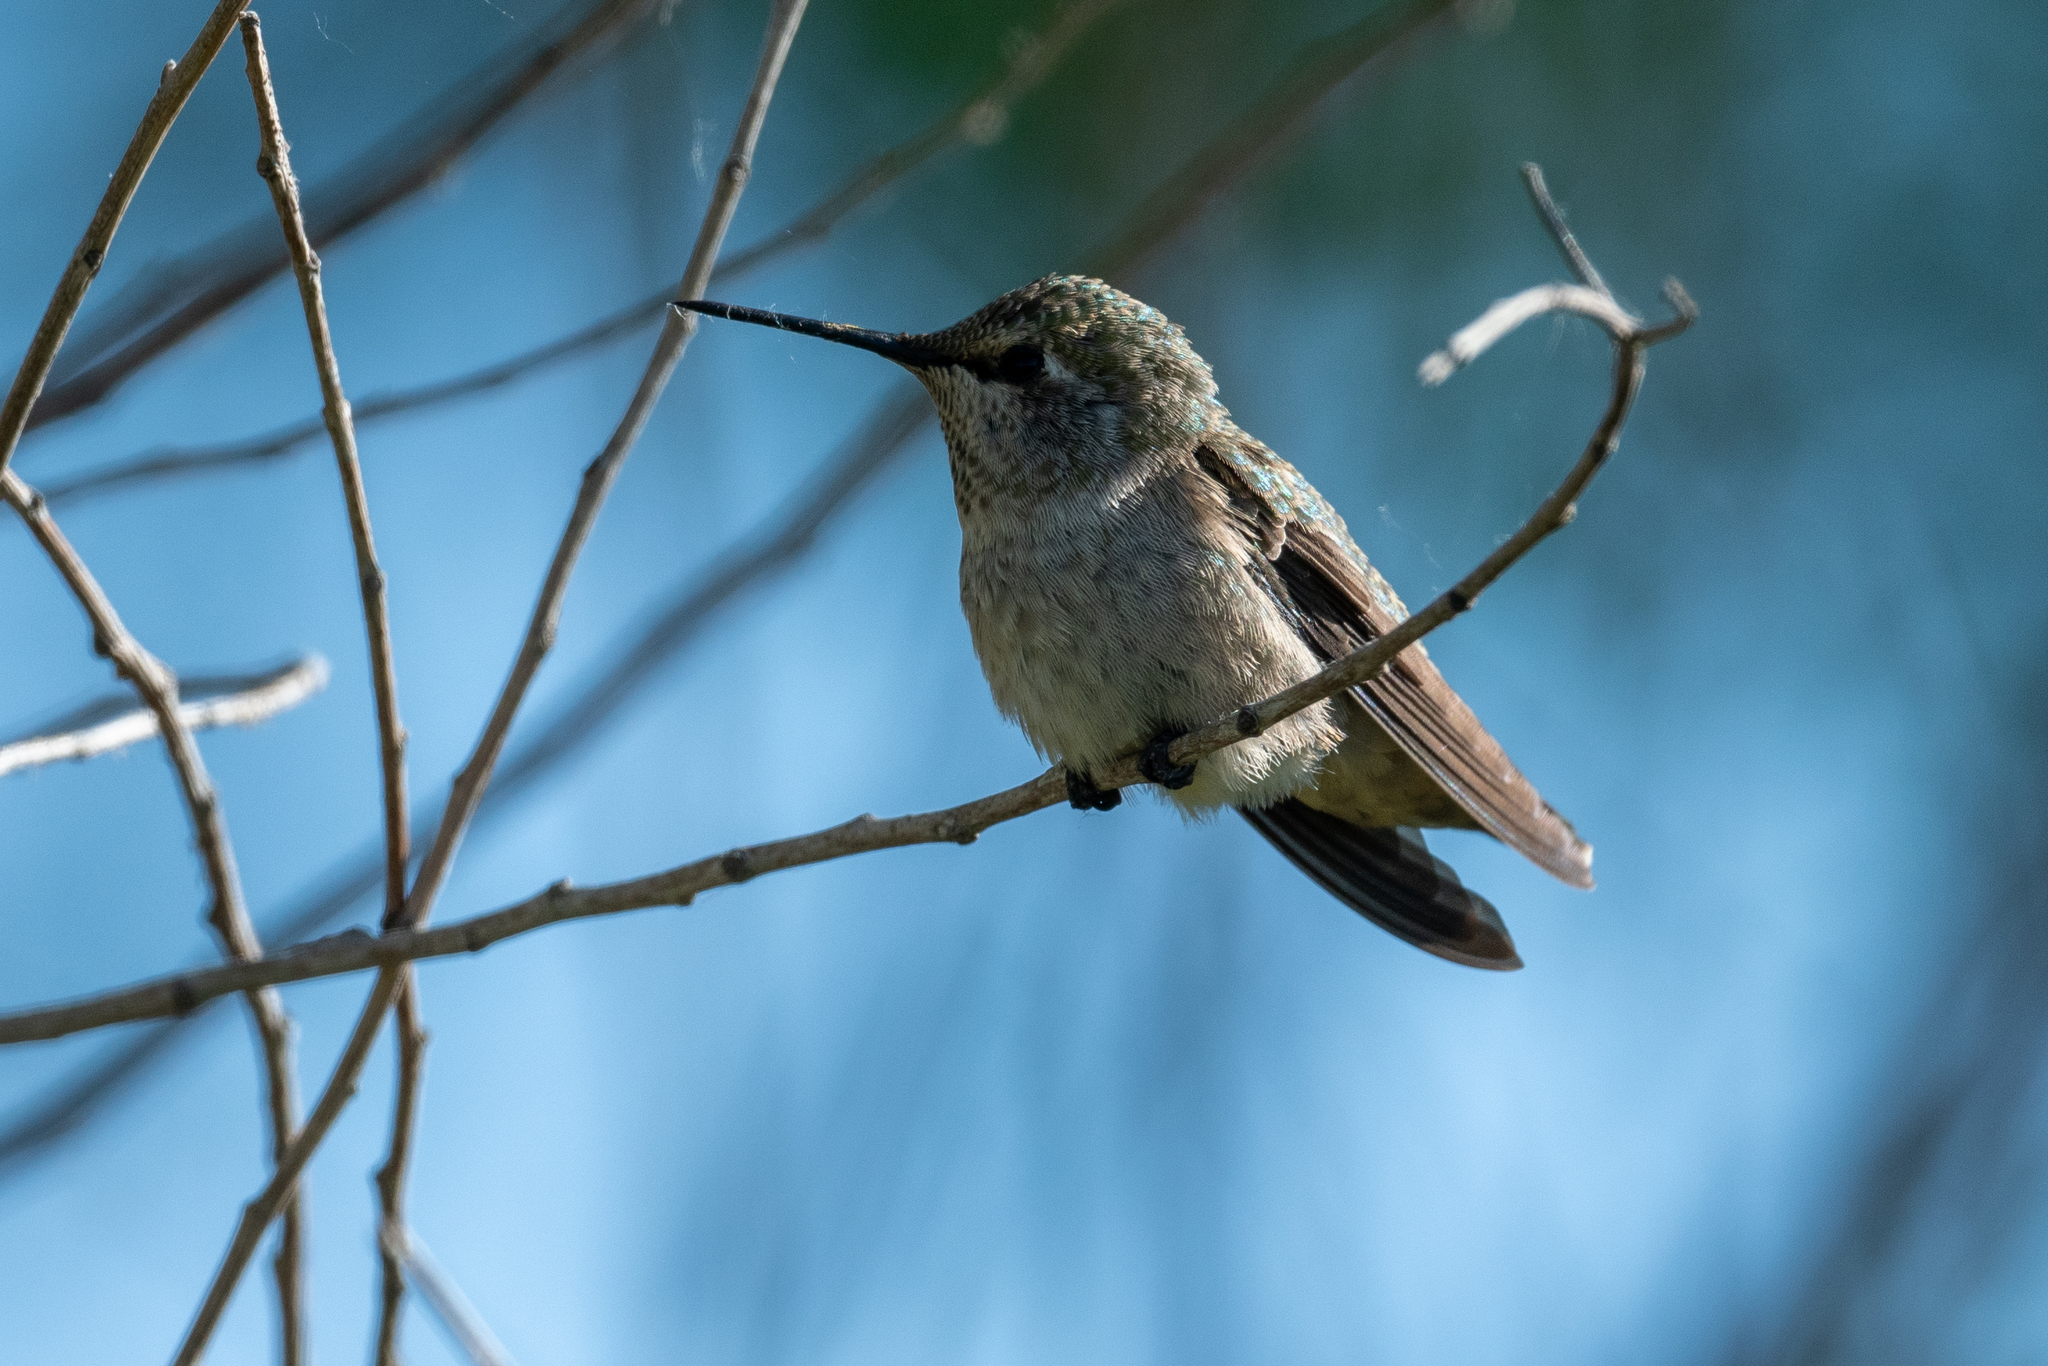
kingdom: Animalia
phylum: Chordata
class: Aves
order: Apodiformes
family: Trochilidae
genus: Calypte
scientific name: Calypte anna
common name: Anna's hummingbird
